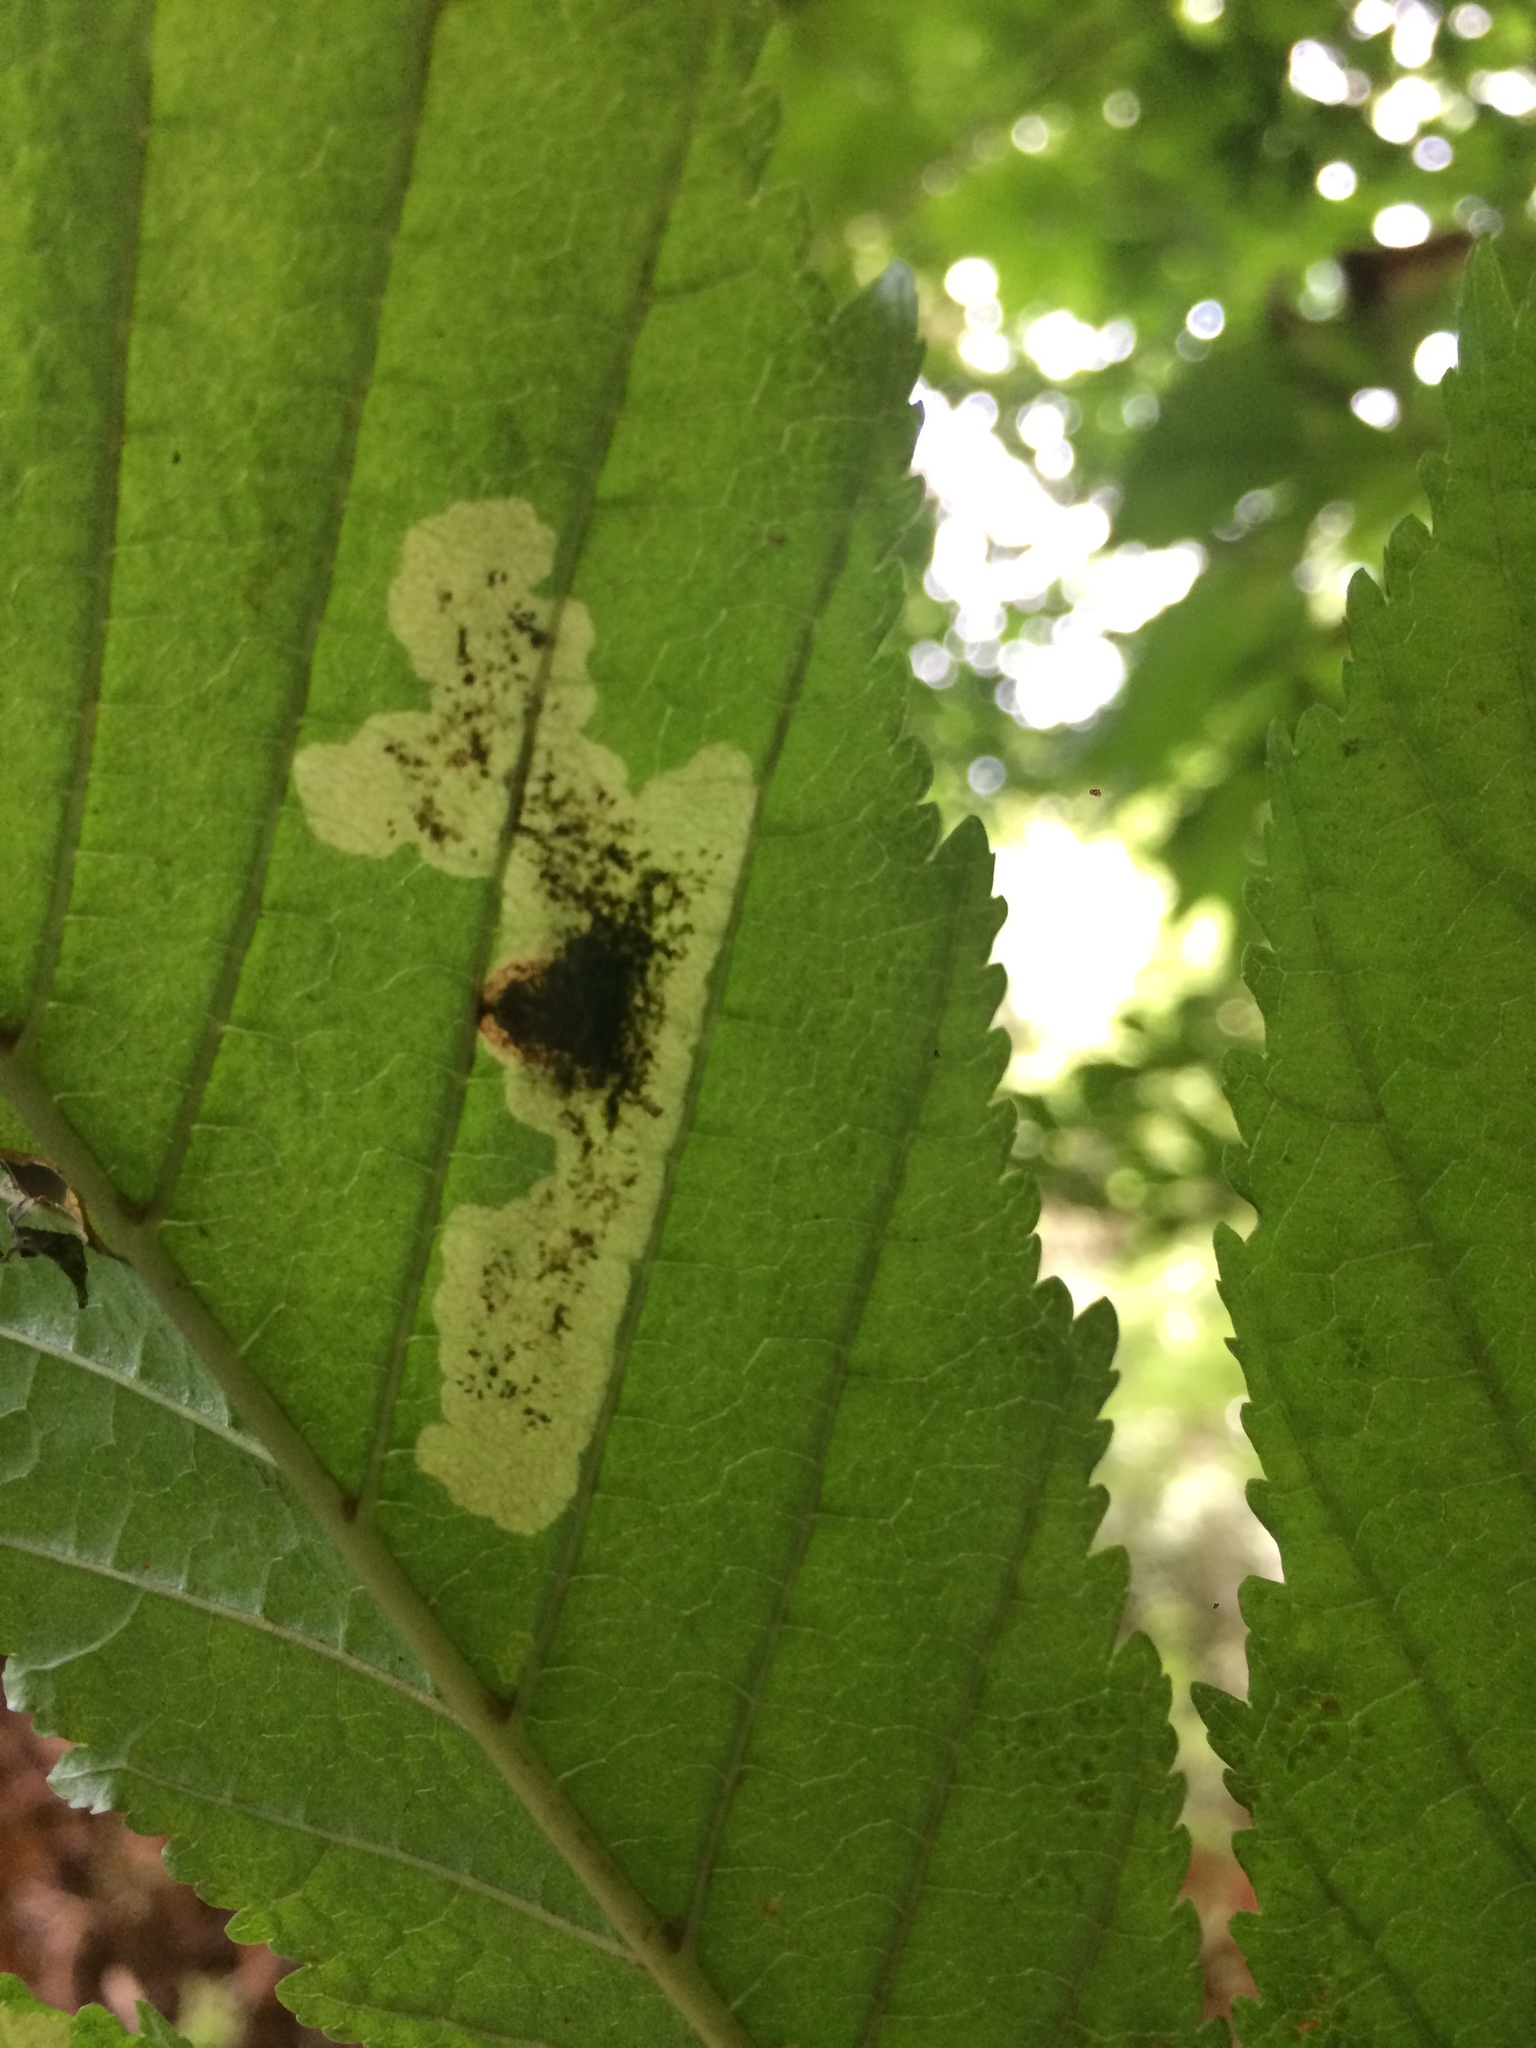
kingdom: Animalia
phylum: Arthropoda
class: Insecta
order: Lepidoptera
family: Gracillariidae
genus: Cameraria
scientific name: Cameraria ohridella
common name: Horse-chestnut leaf-miner
